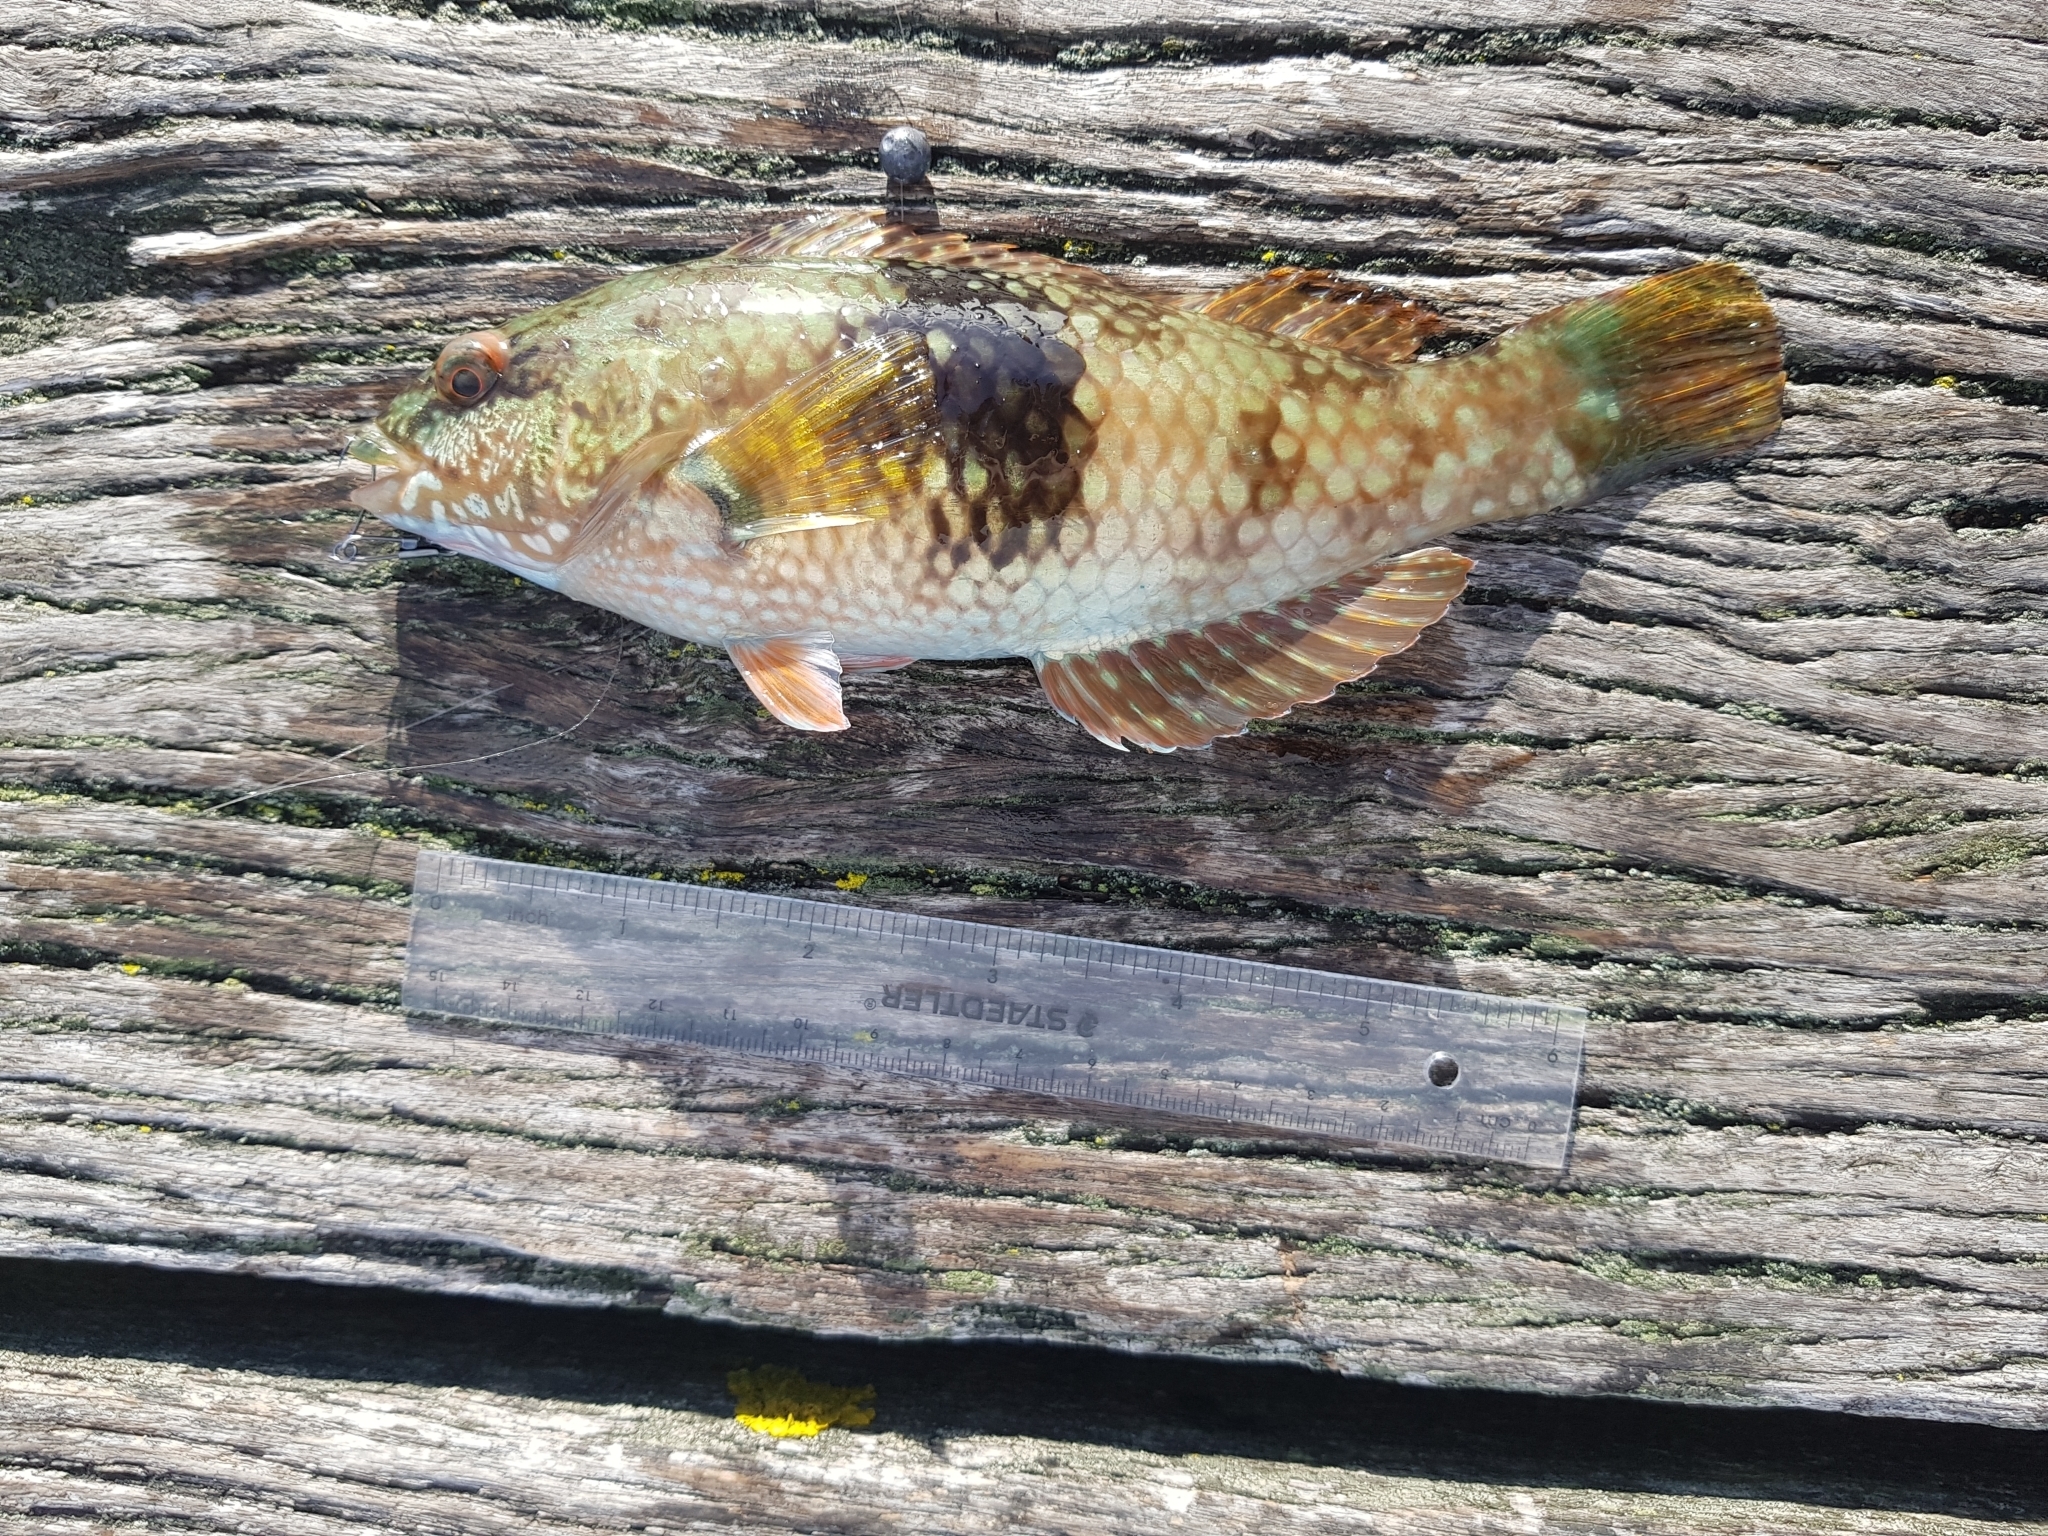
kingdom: Animalia
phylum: Chordata
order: Perciformes
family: Labridae
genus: Notolabrus
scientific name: Notolabrus tetricus
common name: Blue-throated parrotfish
